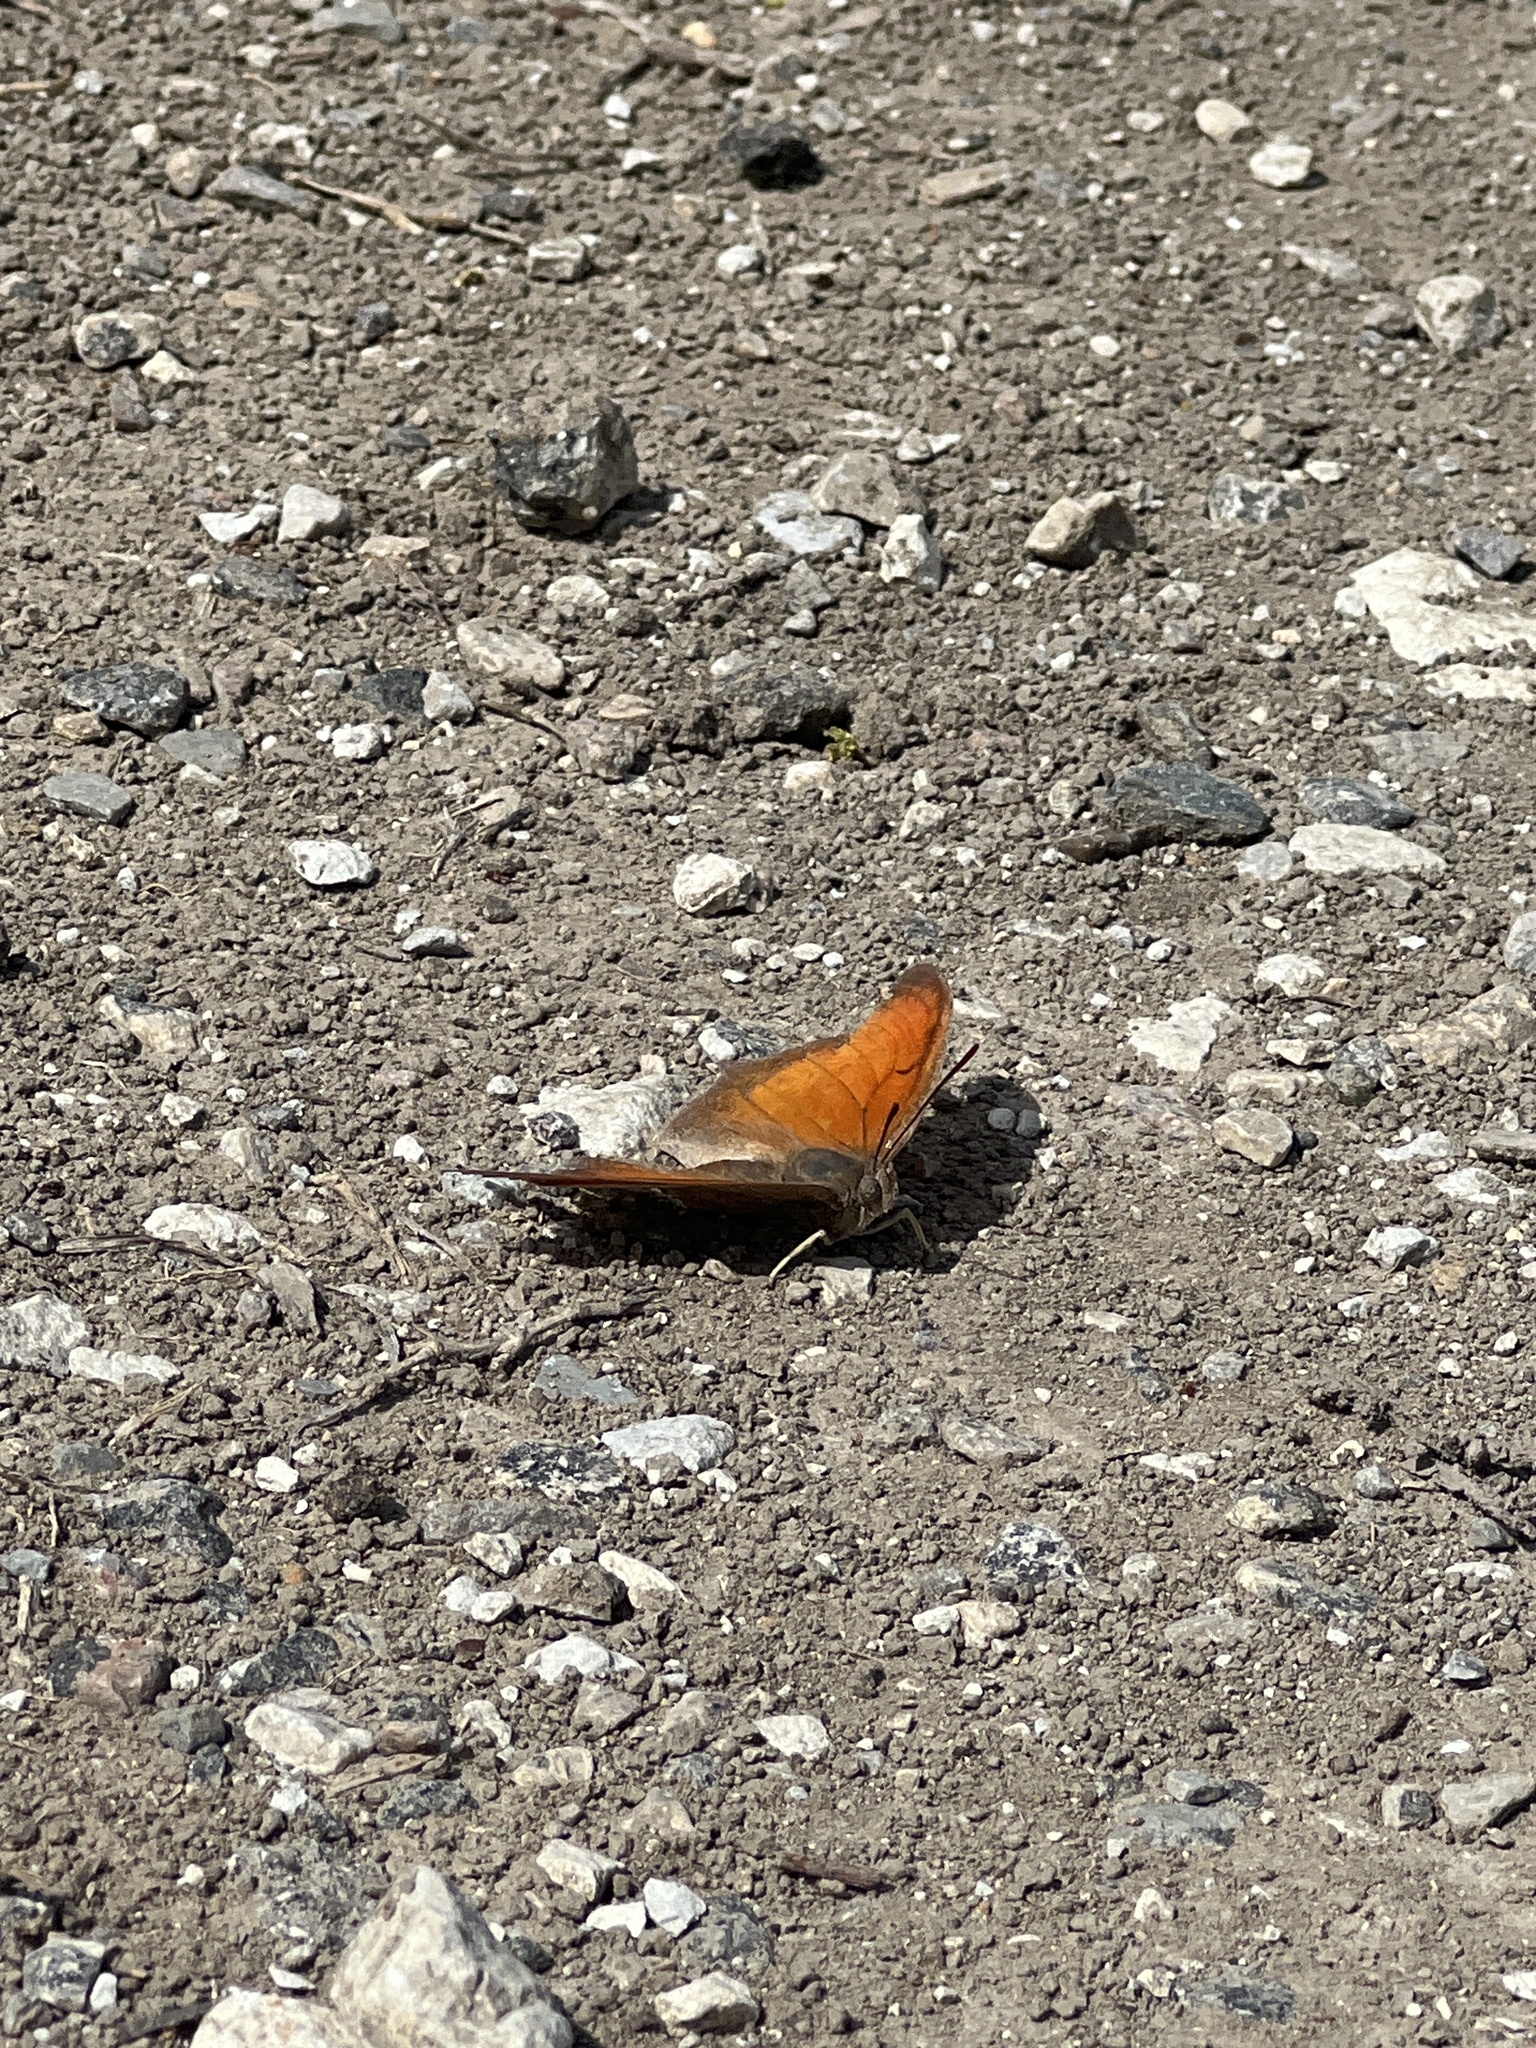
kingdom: Animalia
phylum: Arthropoda
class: Insecta
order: Lepidoptera
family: Nymphalidae
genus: Anaea
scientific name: Anaea andria
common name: Goatweed leafwing
